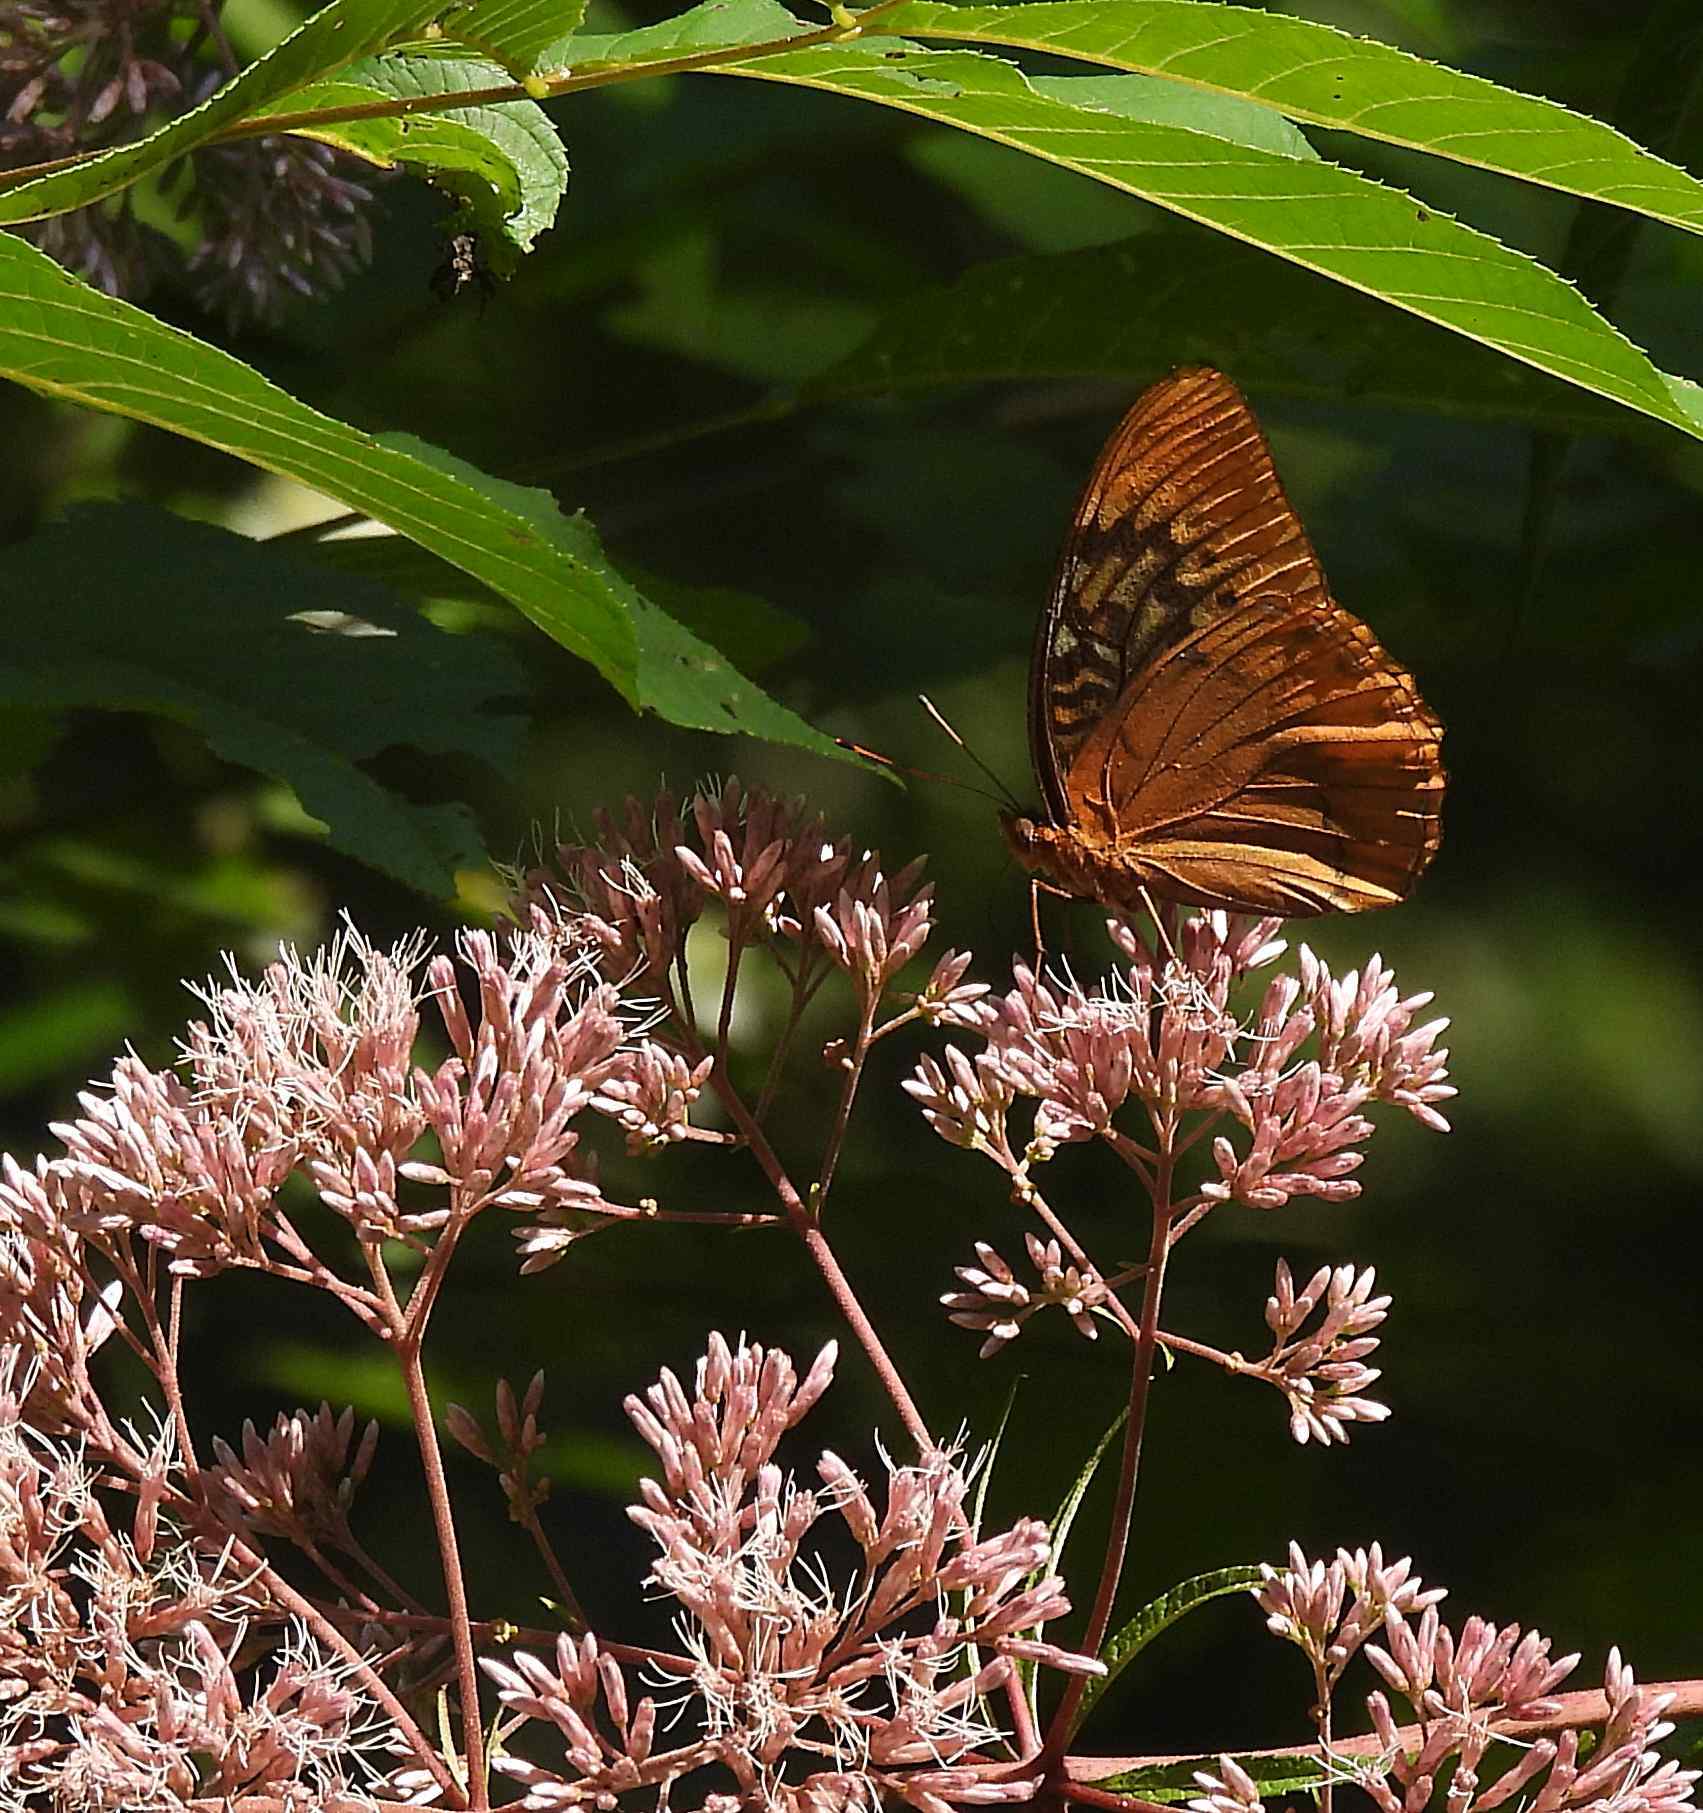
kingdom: Animalia
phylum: Arthropoda
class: Insecta
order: Lepidoptera
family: Nymphalidae
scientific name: Nymphalidae
